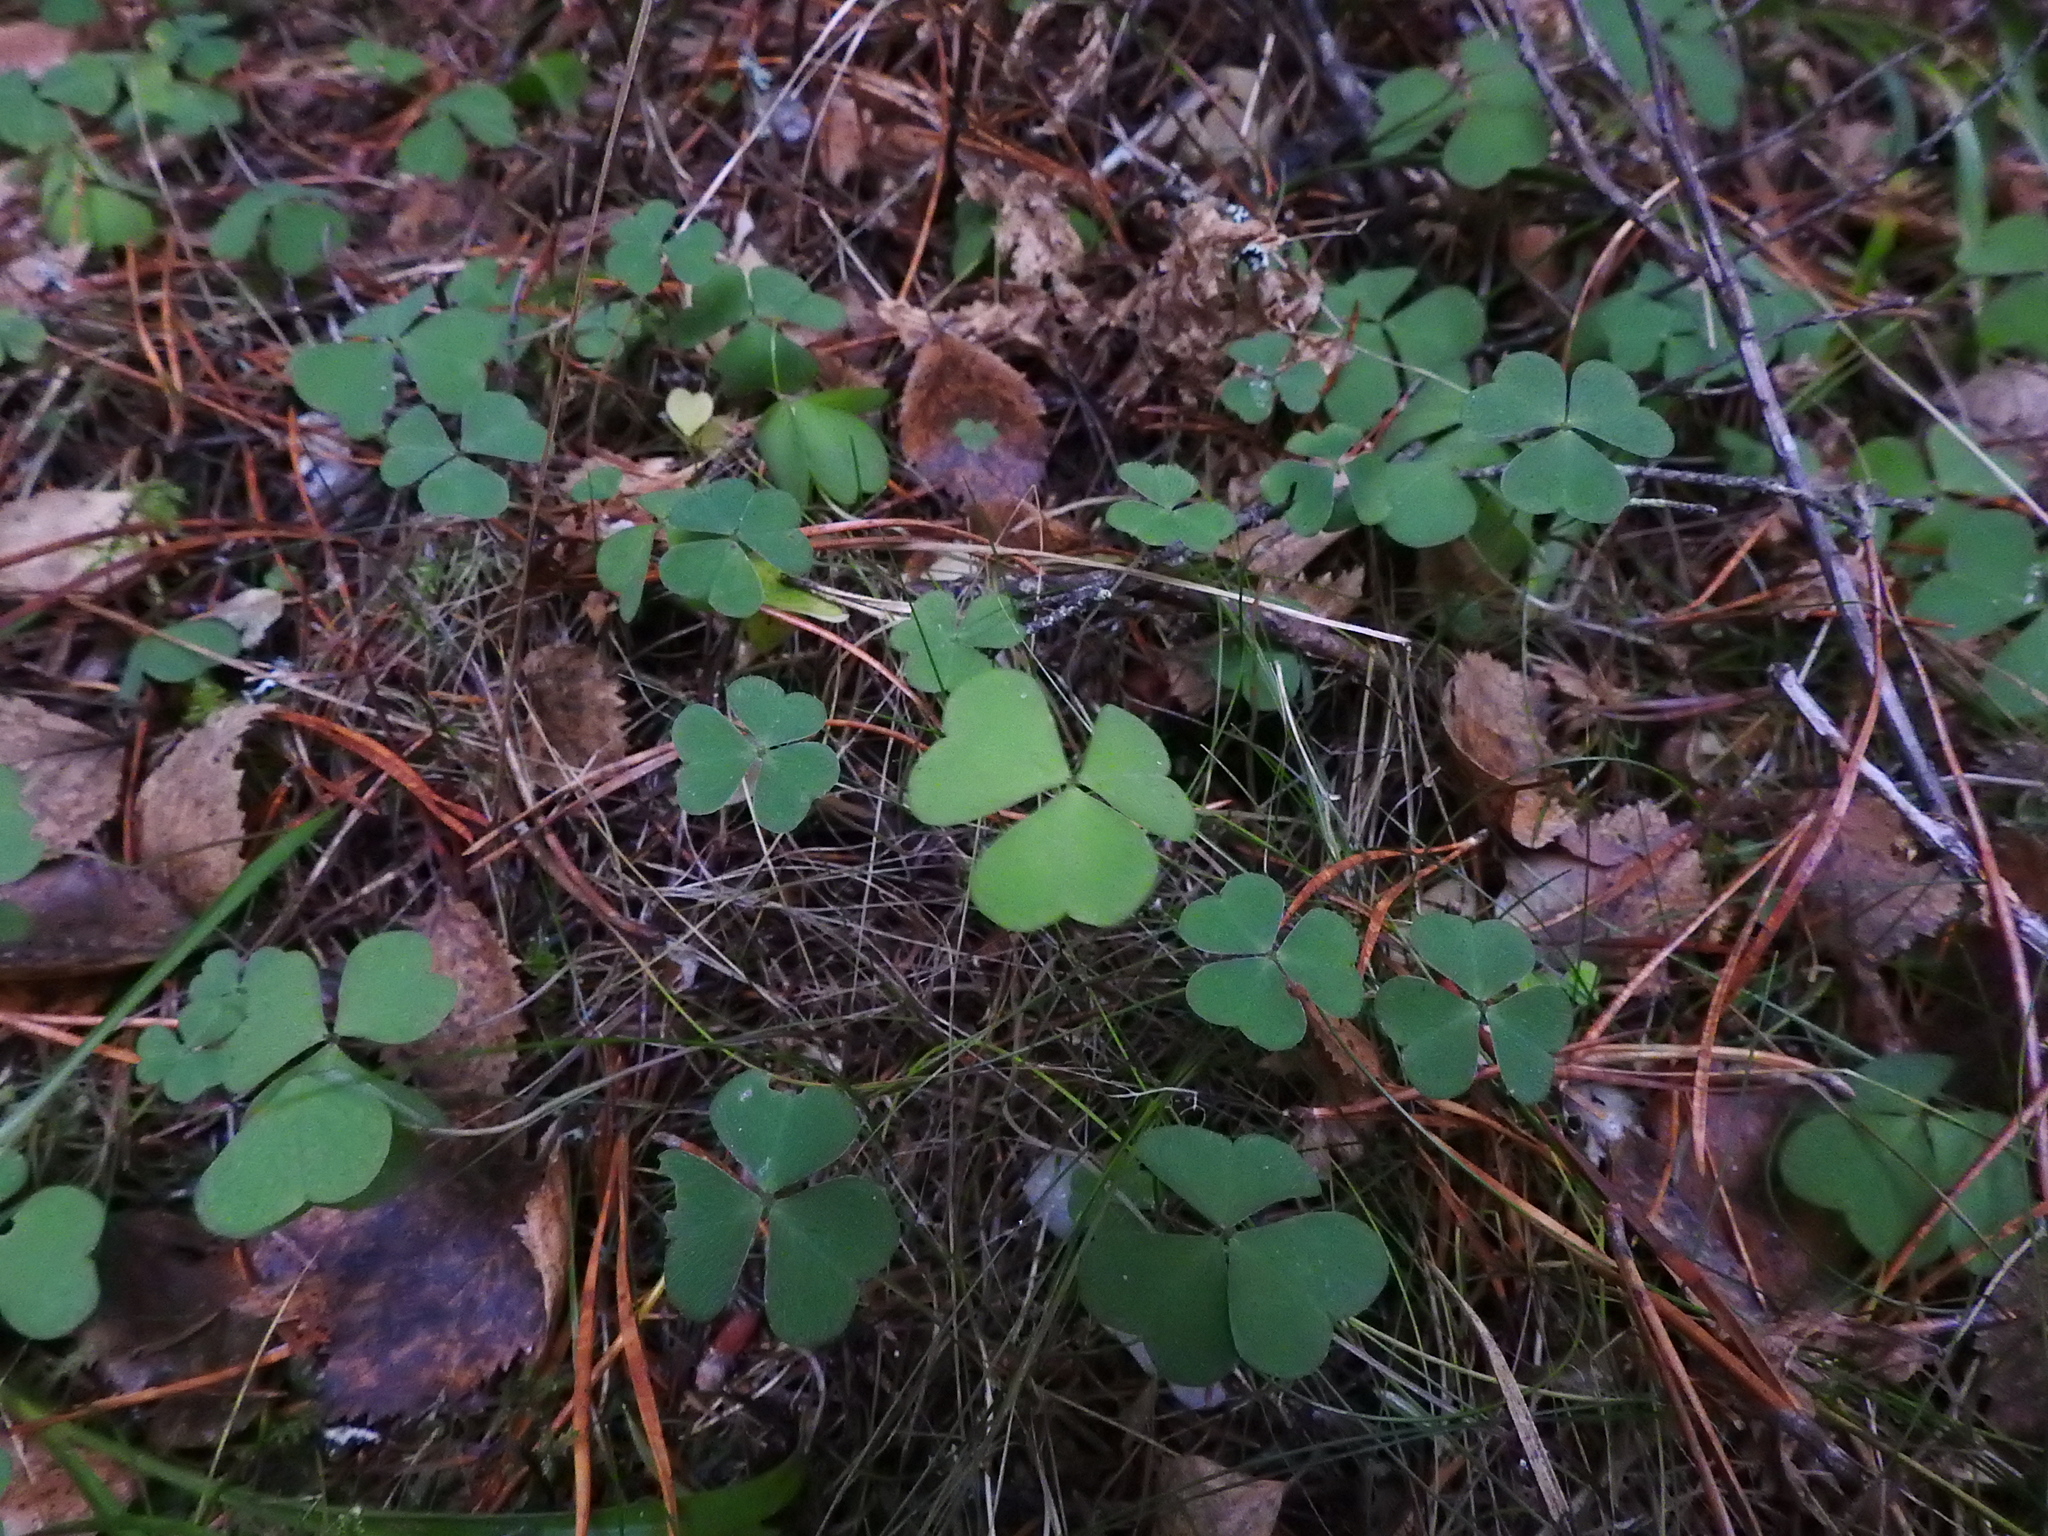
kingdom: Plantae
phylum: Tracheophyta
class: Magnoliopsida
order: Oxalidales
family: Oxalidaceae
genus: Oxalis
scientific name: Oxalis acetosella
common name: Wood-sorrel
